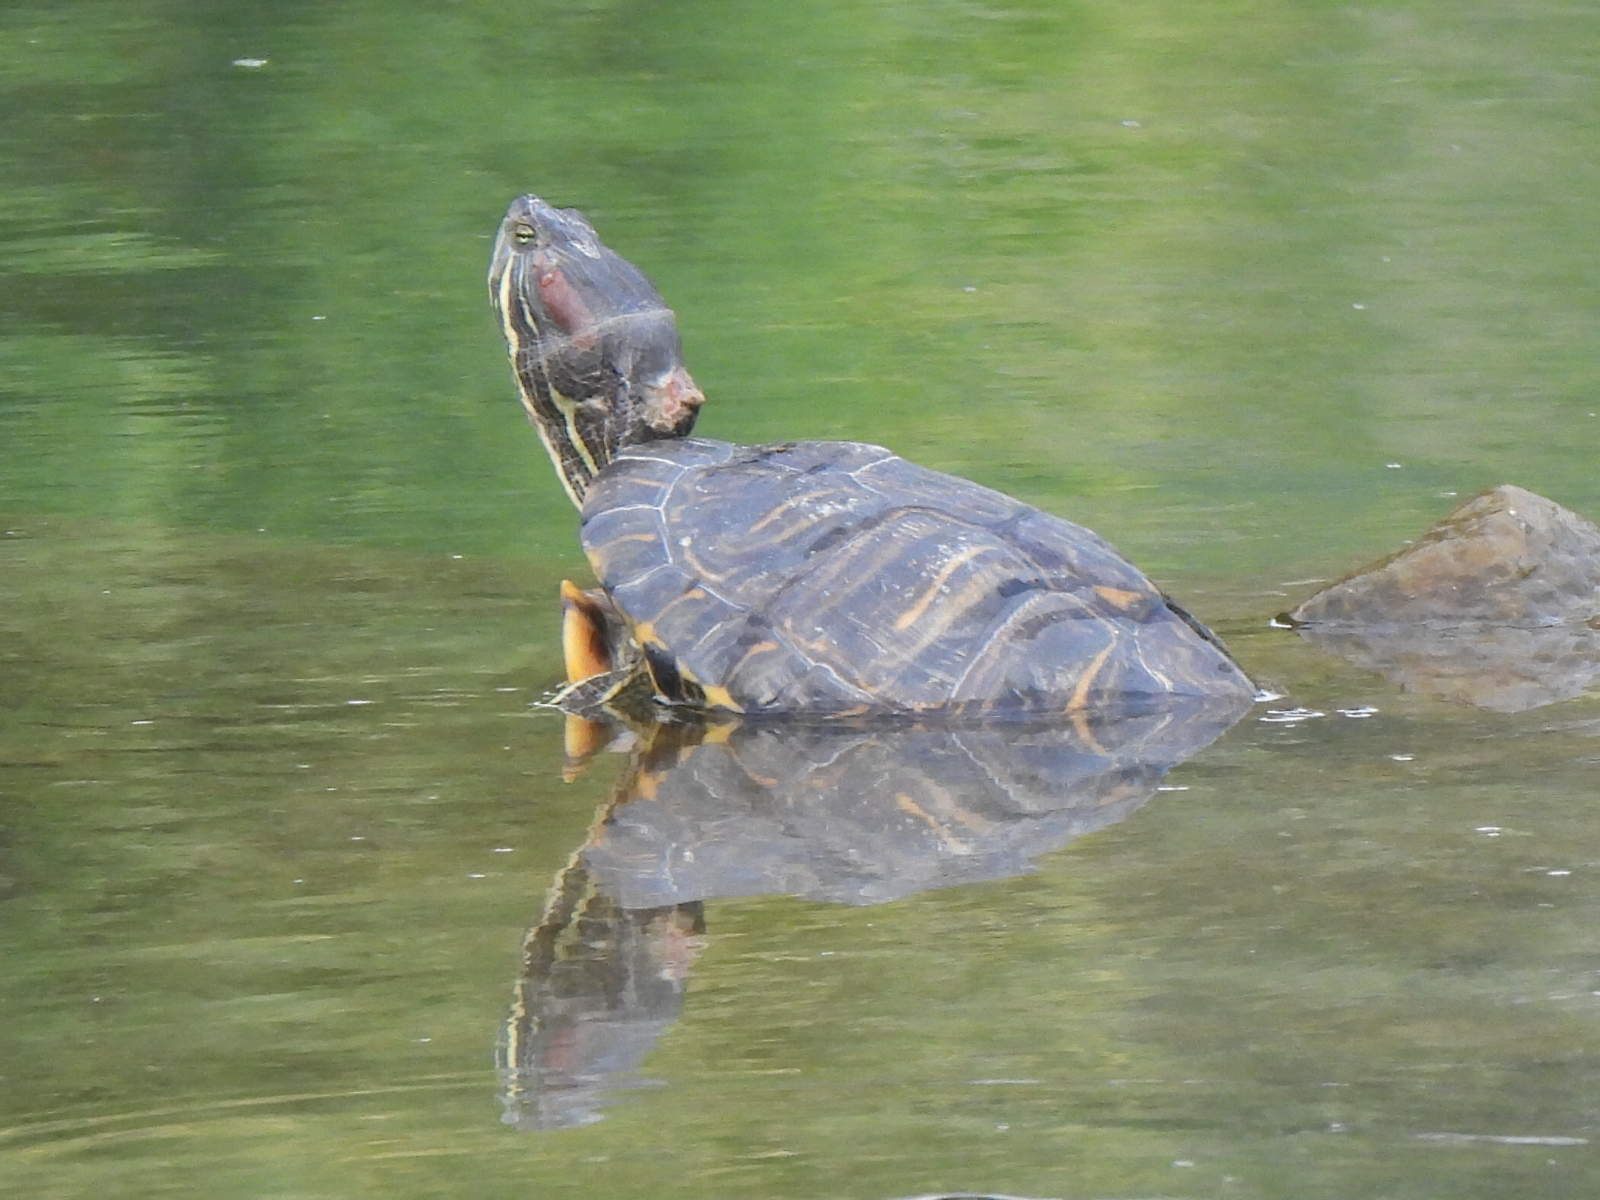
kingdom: Animalia
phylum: Chordata
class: Testudines
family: Emydidae
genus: Trachemys
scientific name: Trachemys scripta
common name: Slider
